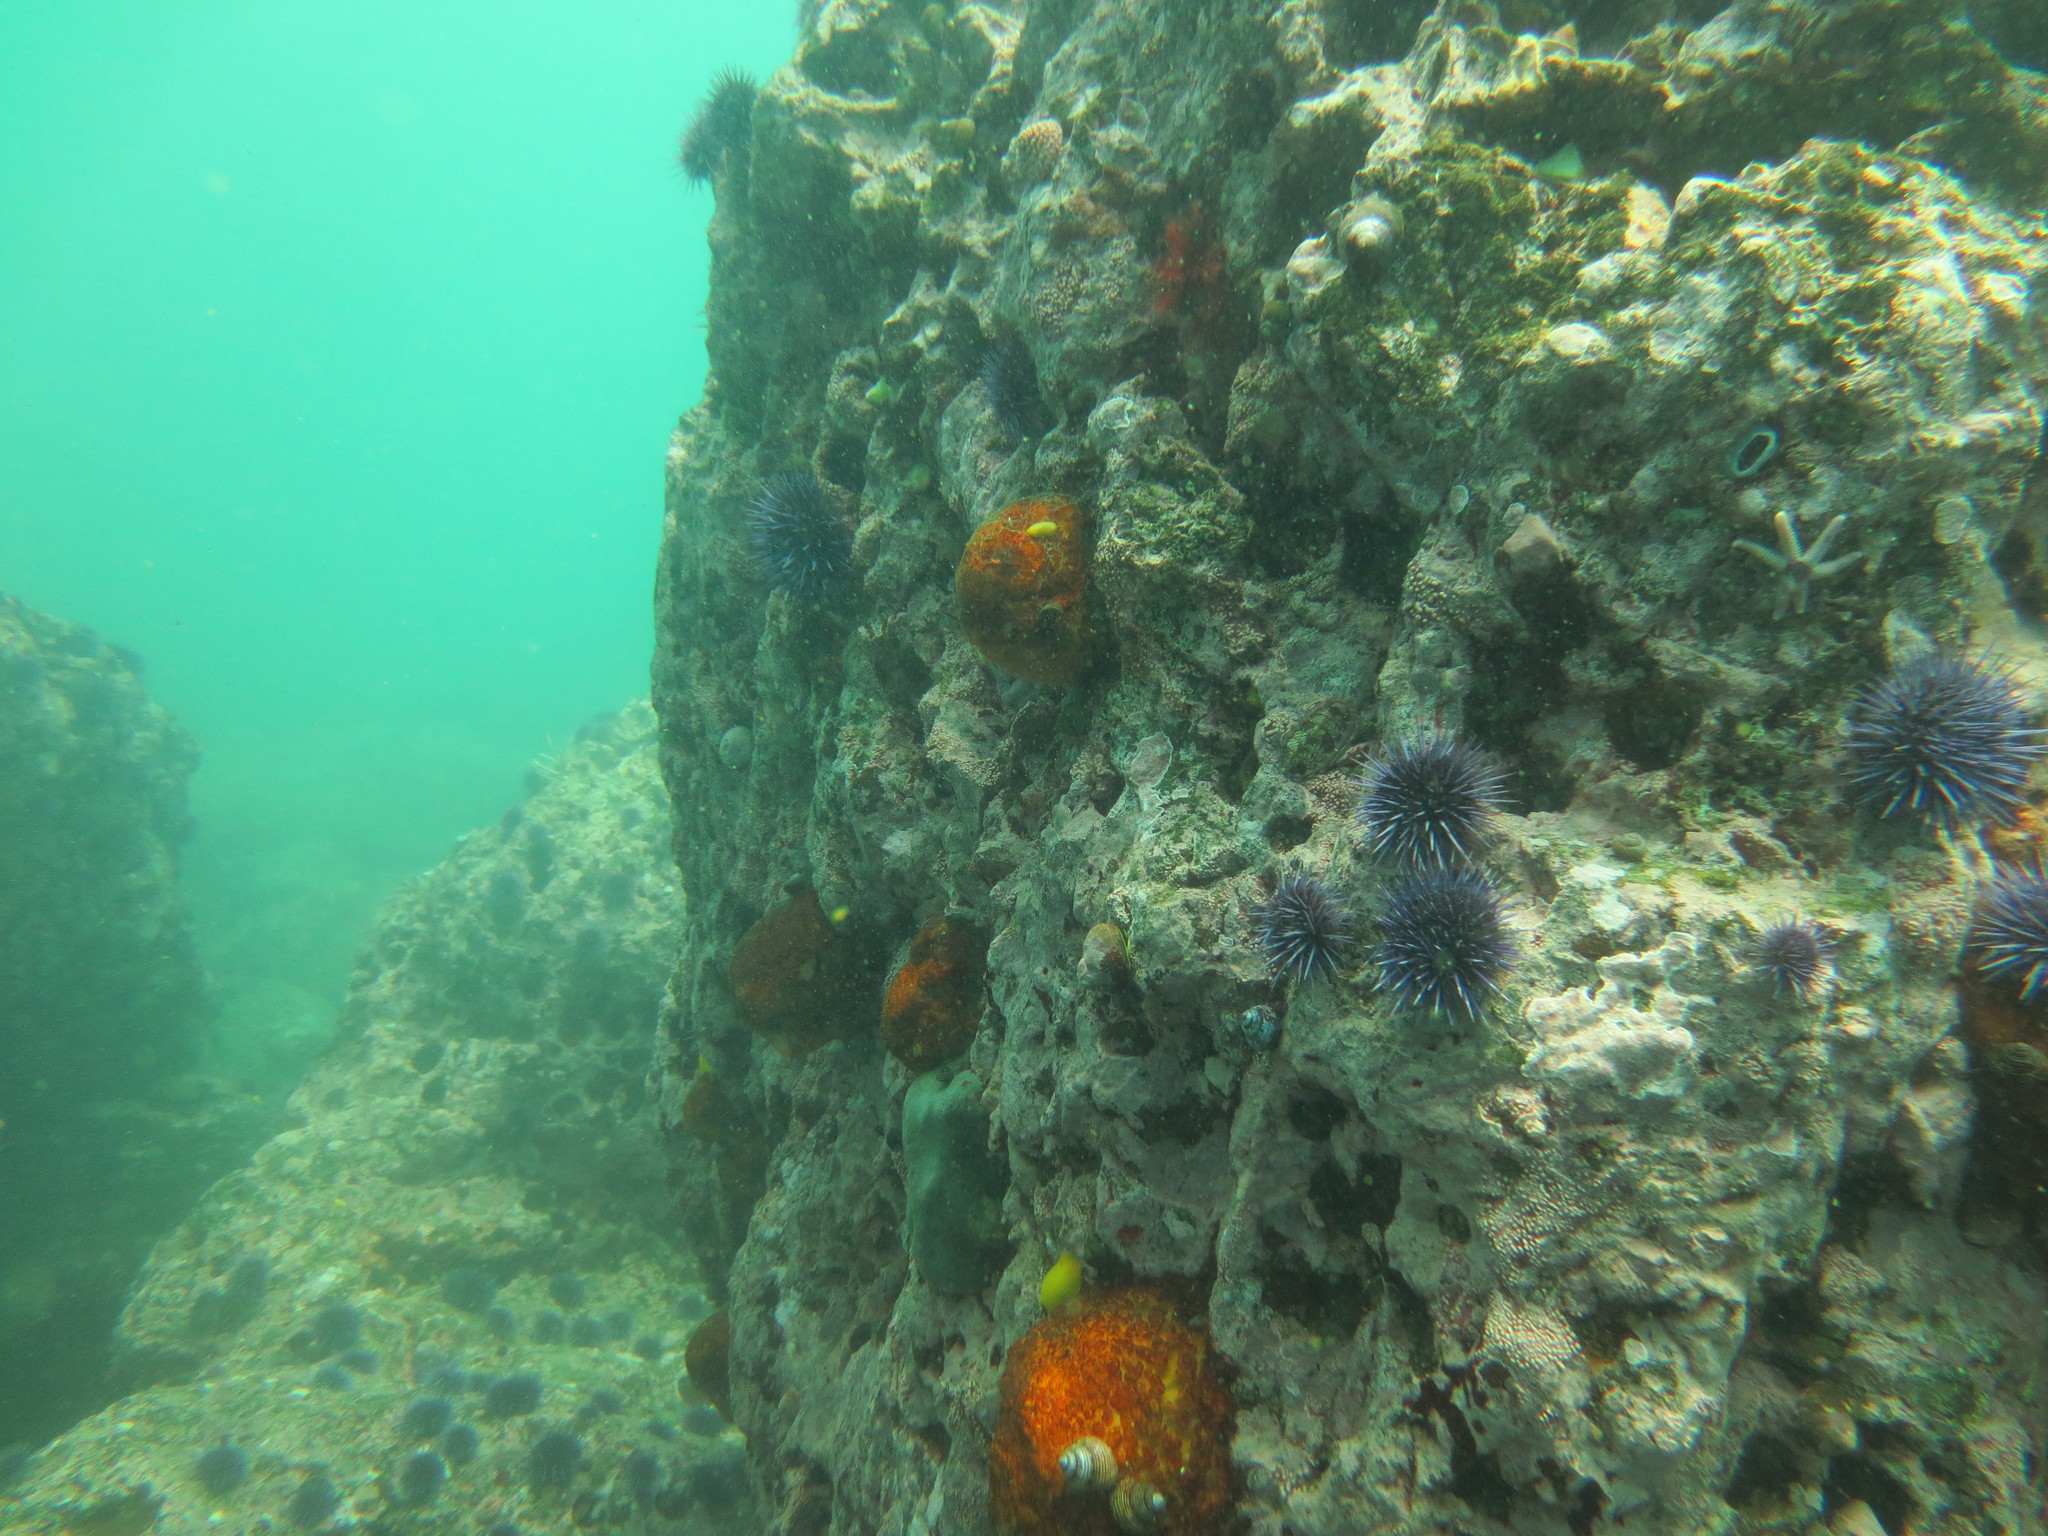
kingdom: Animalia
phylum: Porifera
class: Demospongiae
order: Tethyida
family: Tethyidae
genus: Tethya
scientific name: Tethya californiana
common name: Orange rough ball horny sponge
